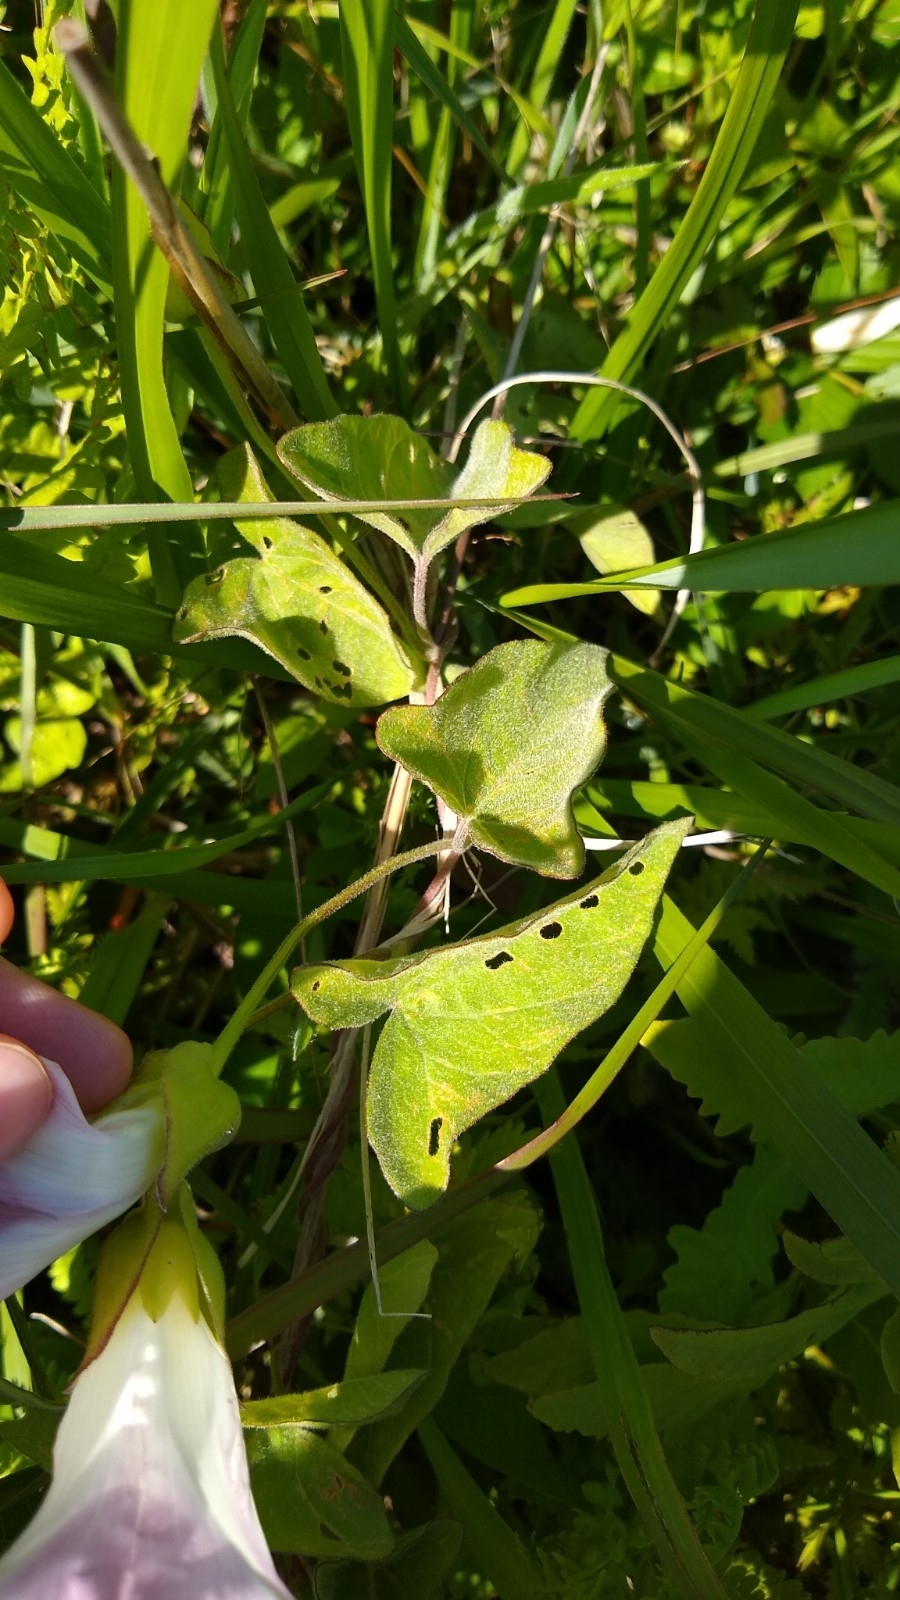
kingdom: Plantae
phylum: Tracheophyta
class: Magnoliopsida
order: Solanales
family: Convolvulaceae
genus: Calystegia
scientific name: Calystegia sepium
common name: Hedge bindweed
